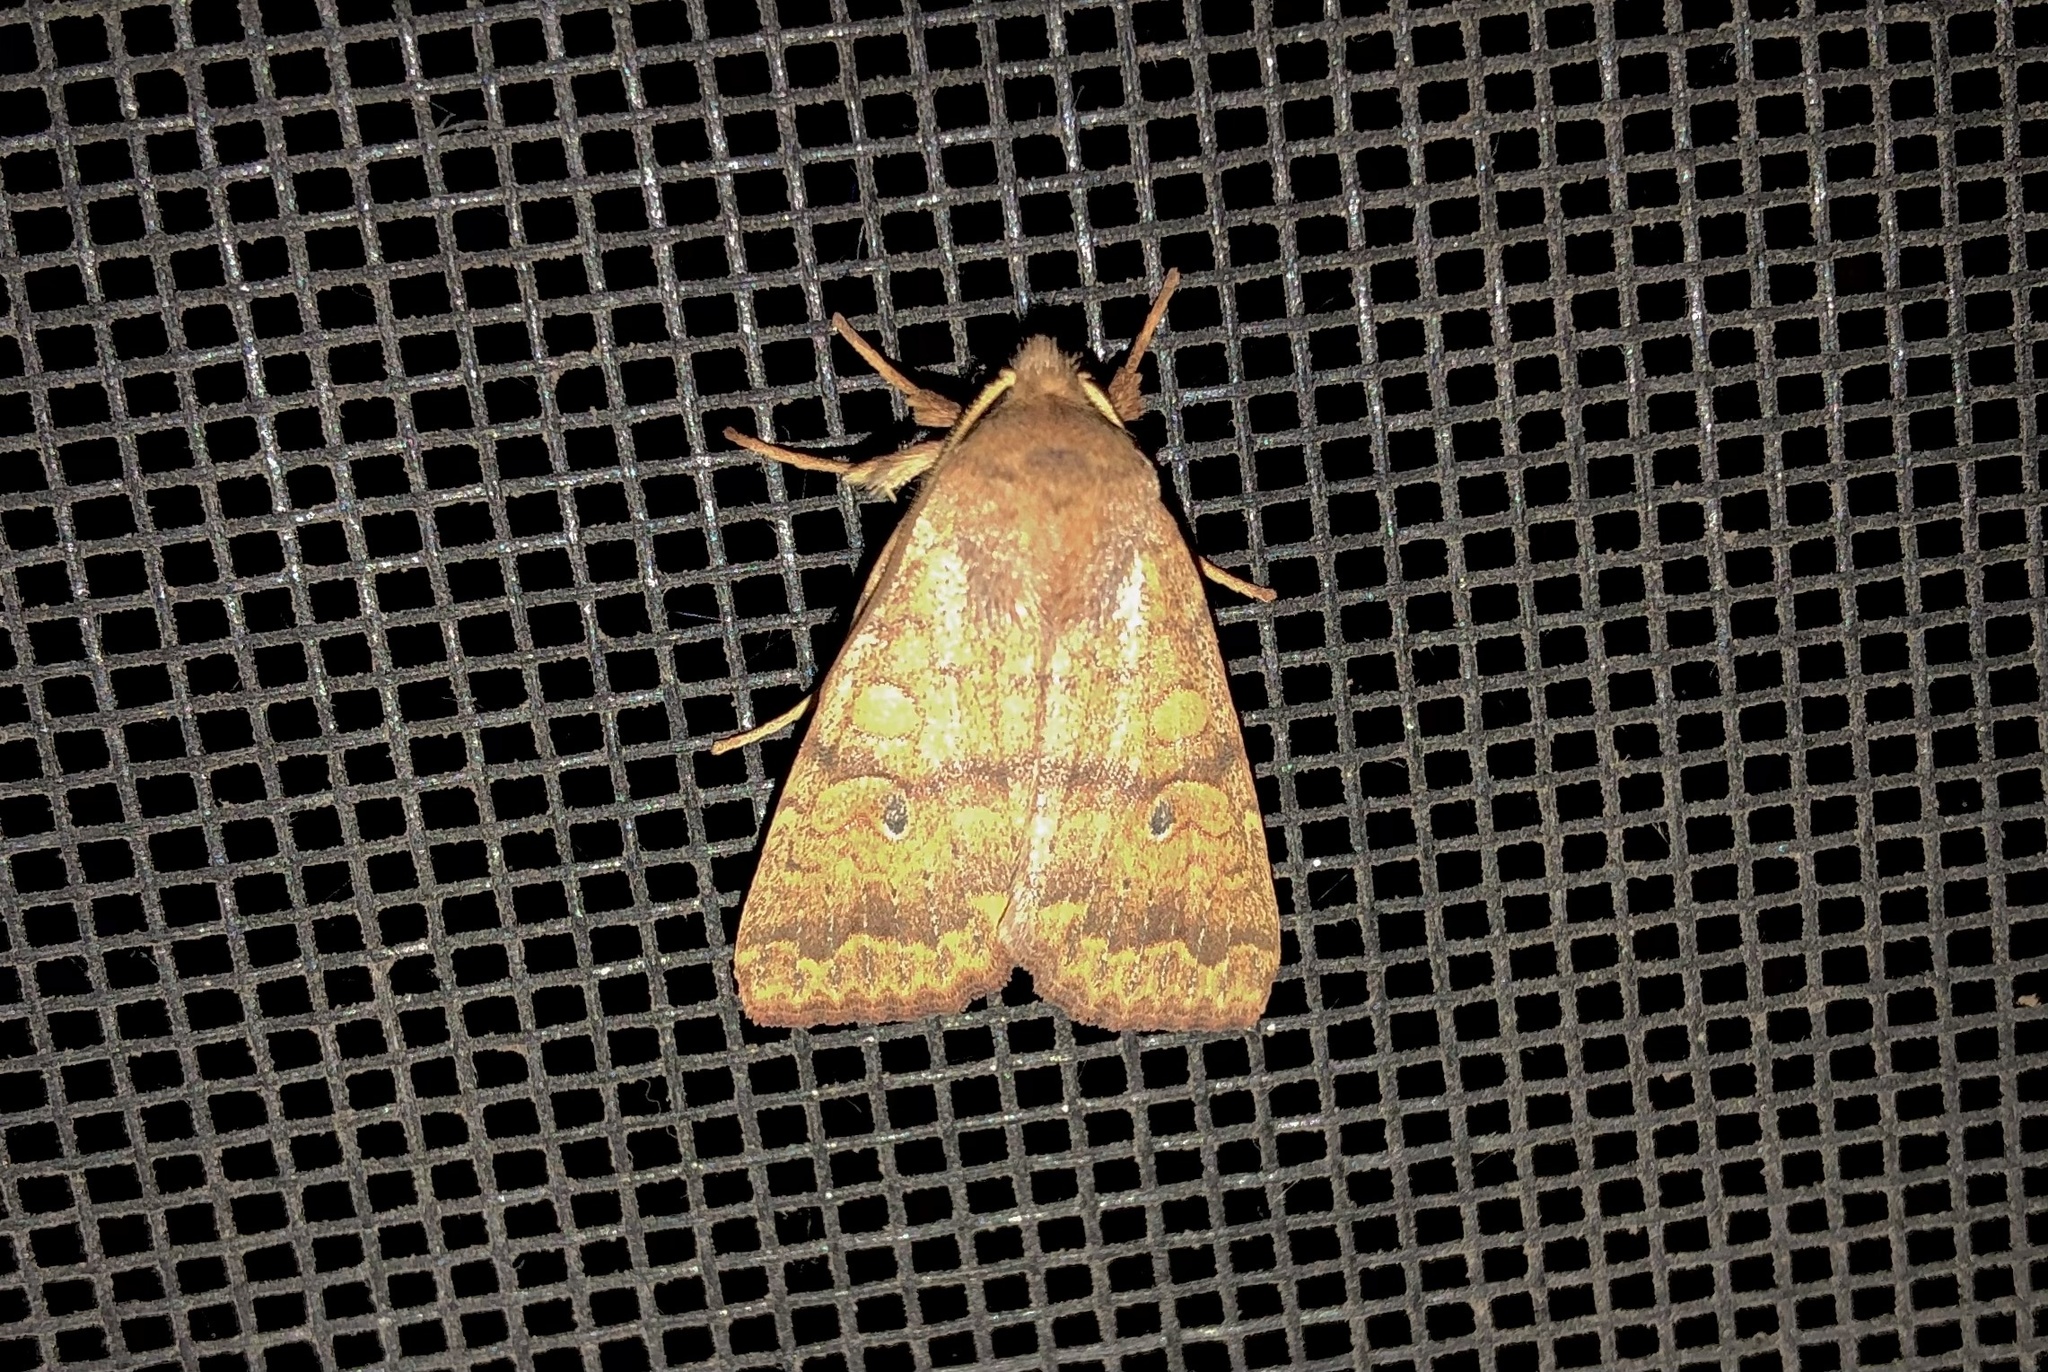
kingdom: Animalia
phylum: Arthropoda
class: Insecta
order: Lepidoptera
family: Noctuidae
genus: Agrochola
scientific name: Agrochola bicolorago
